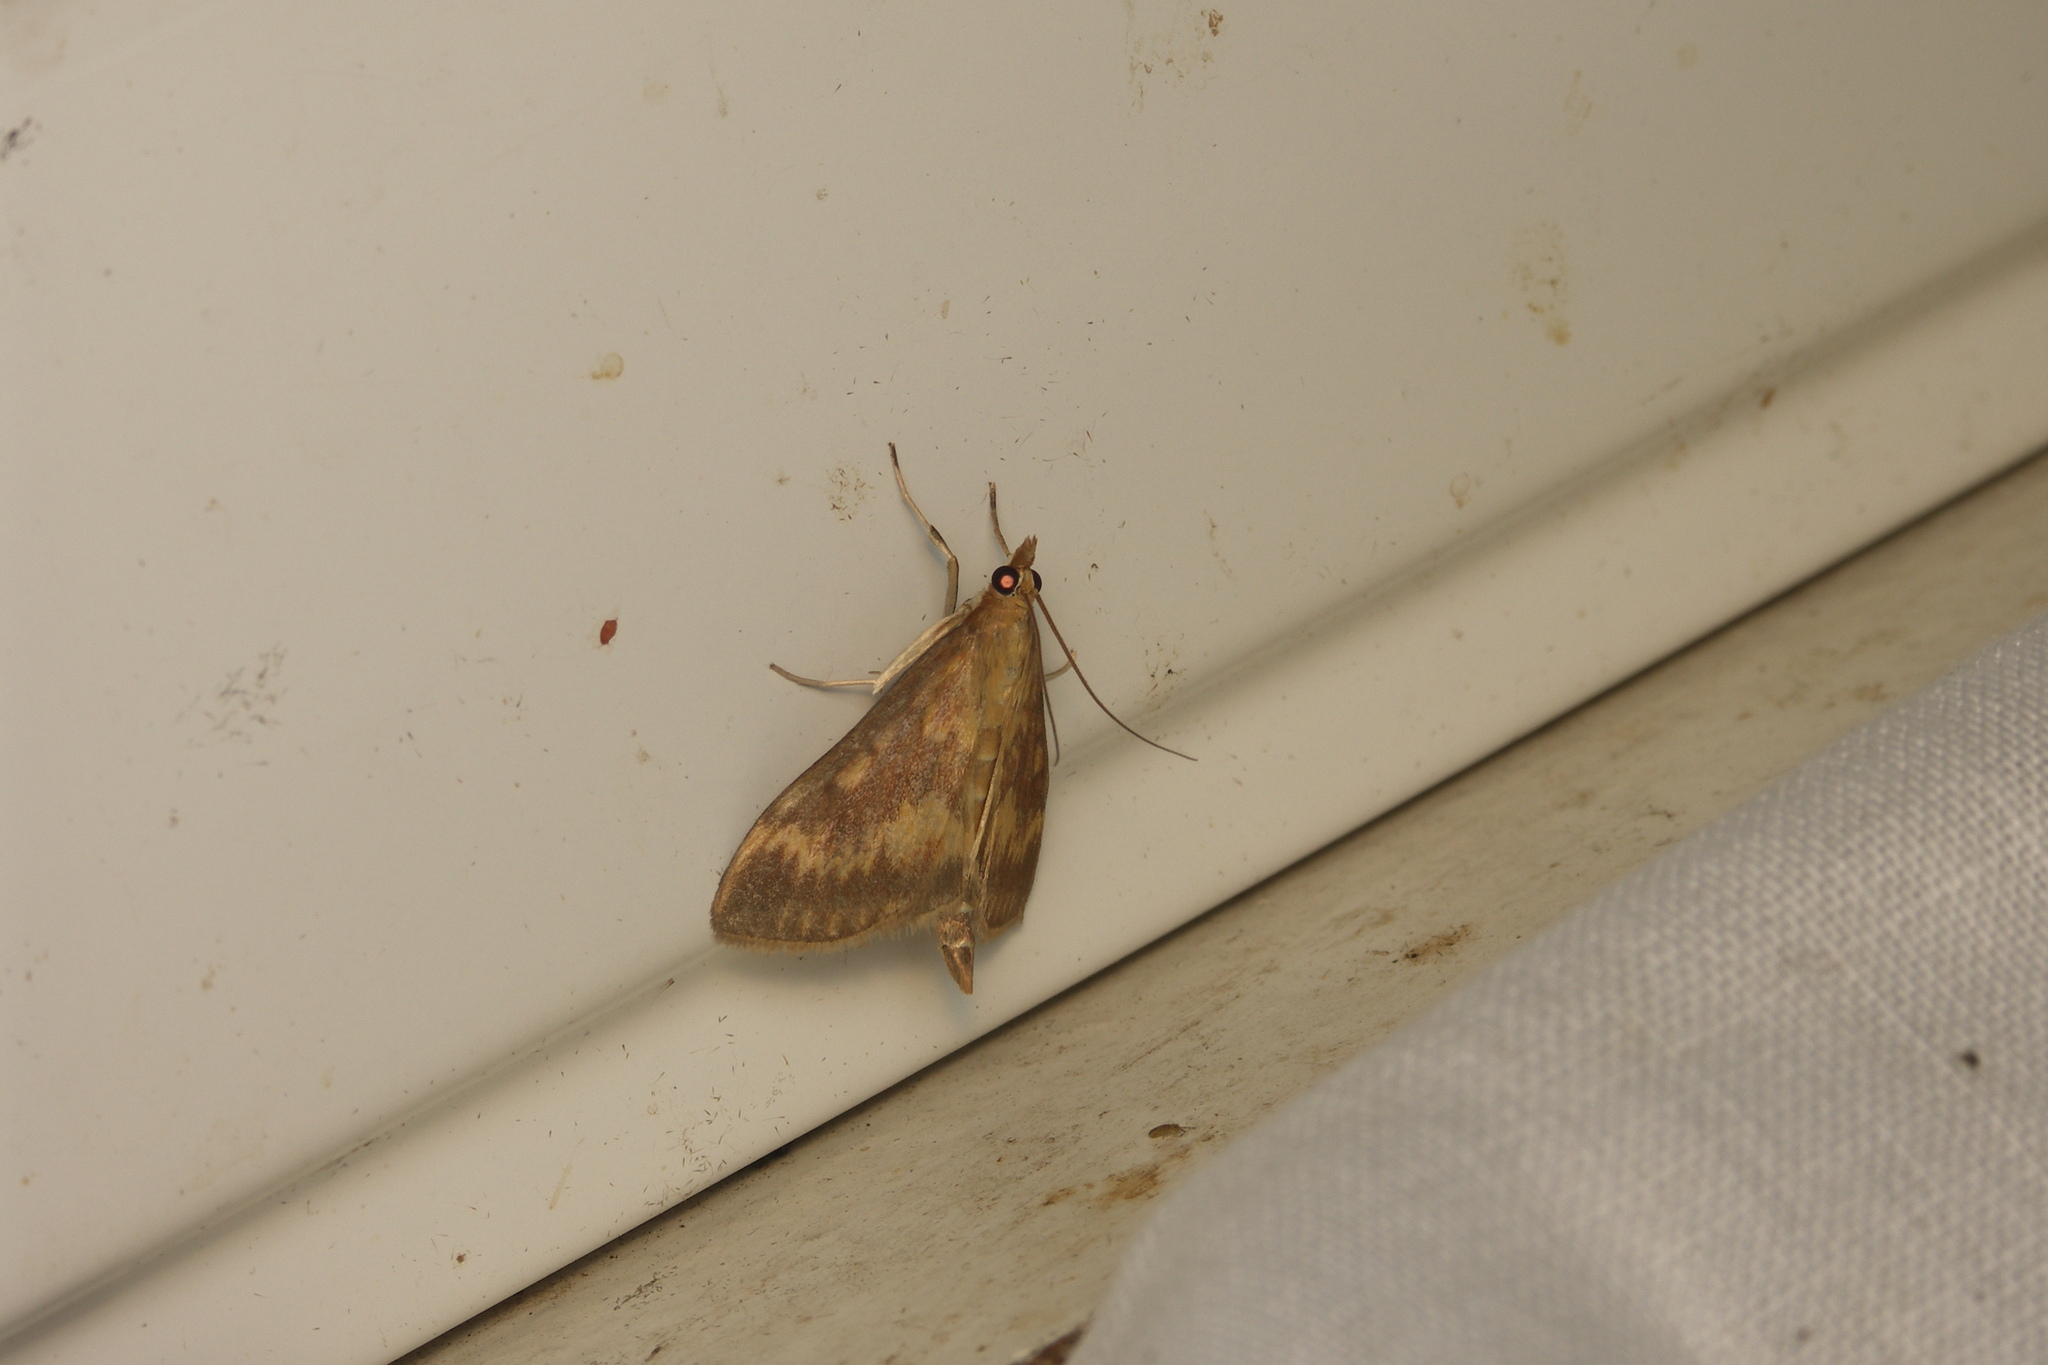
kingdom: Animalia
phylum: Arthropoda
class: Insecta
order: Lepidoptera
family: Crambidae
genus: Ostrinia
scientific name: Ostrinia nubilalis
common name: European corn borer
